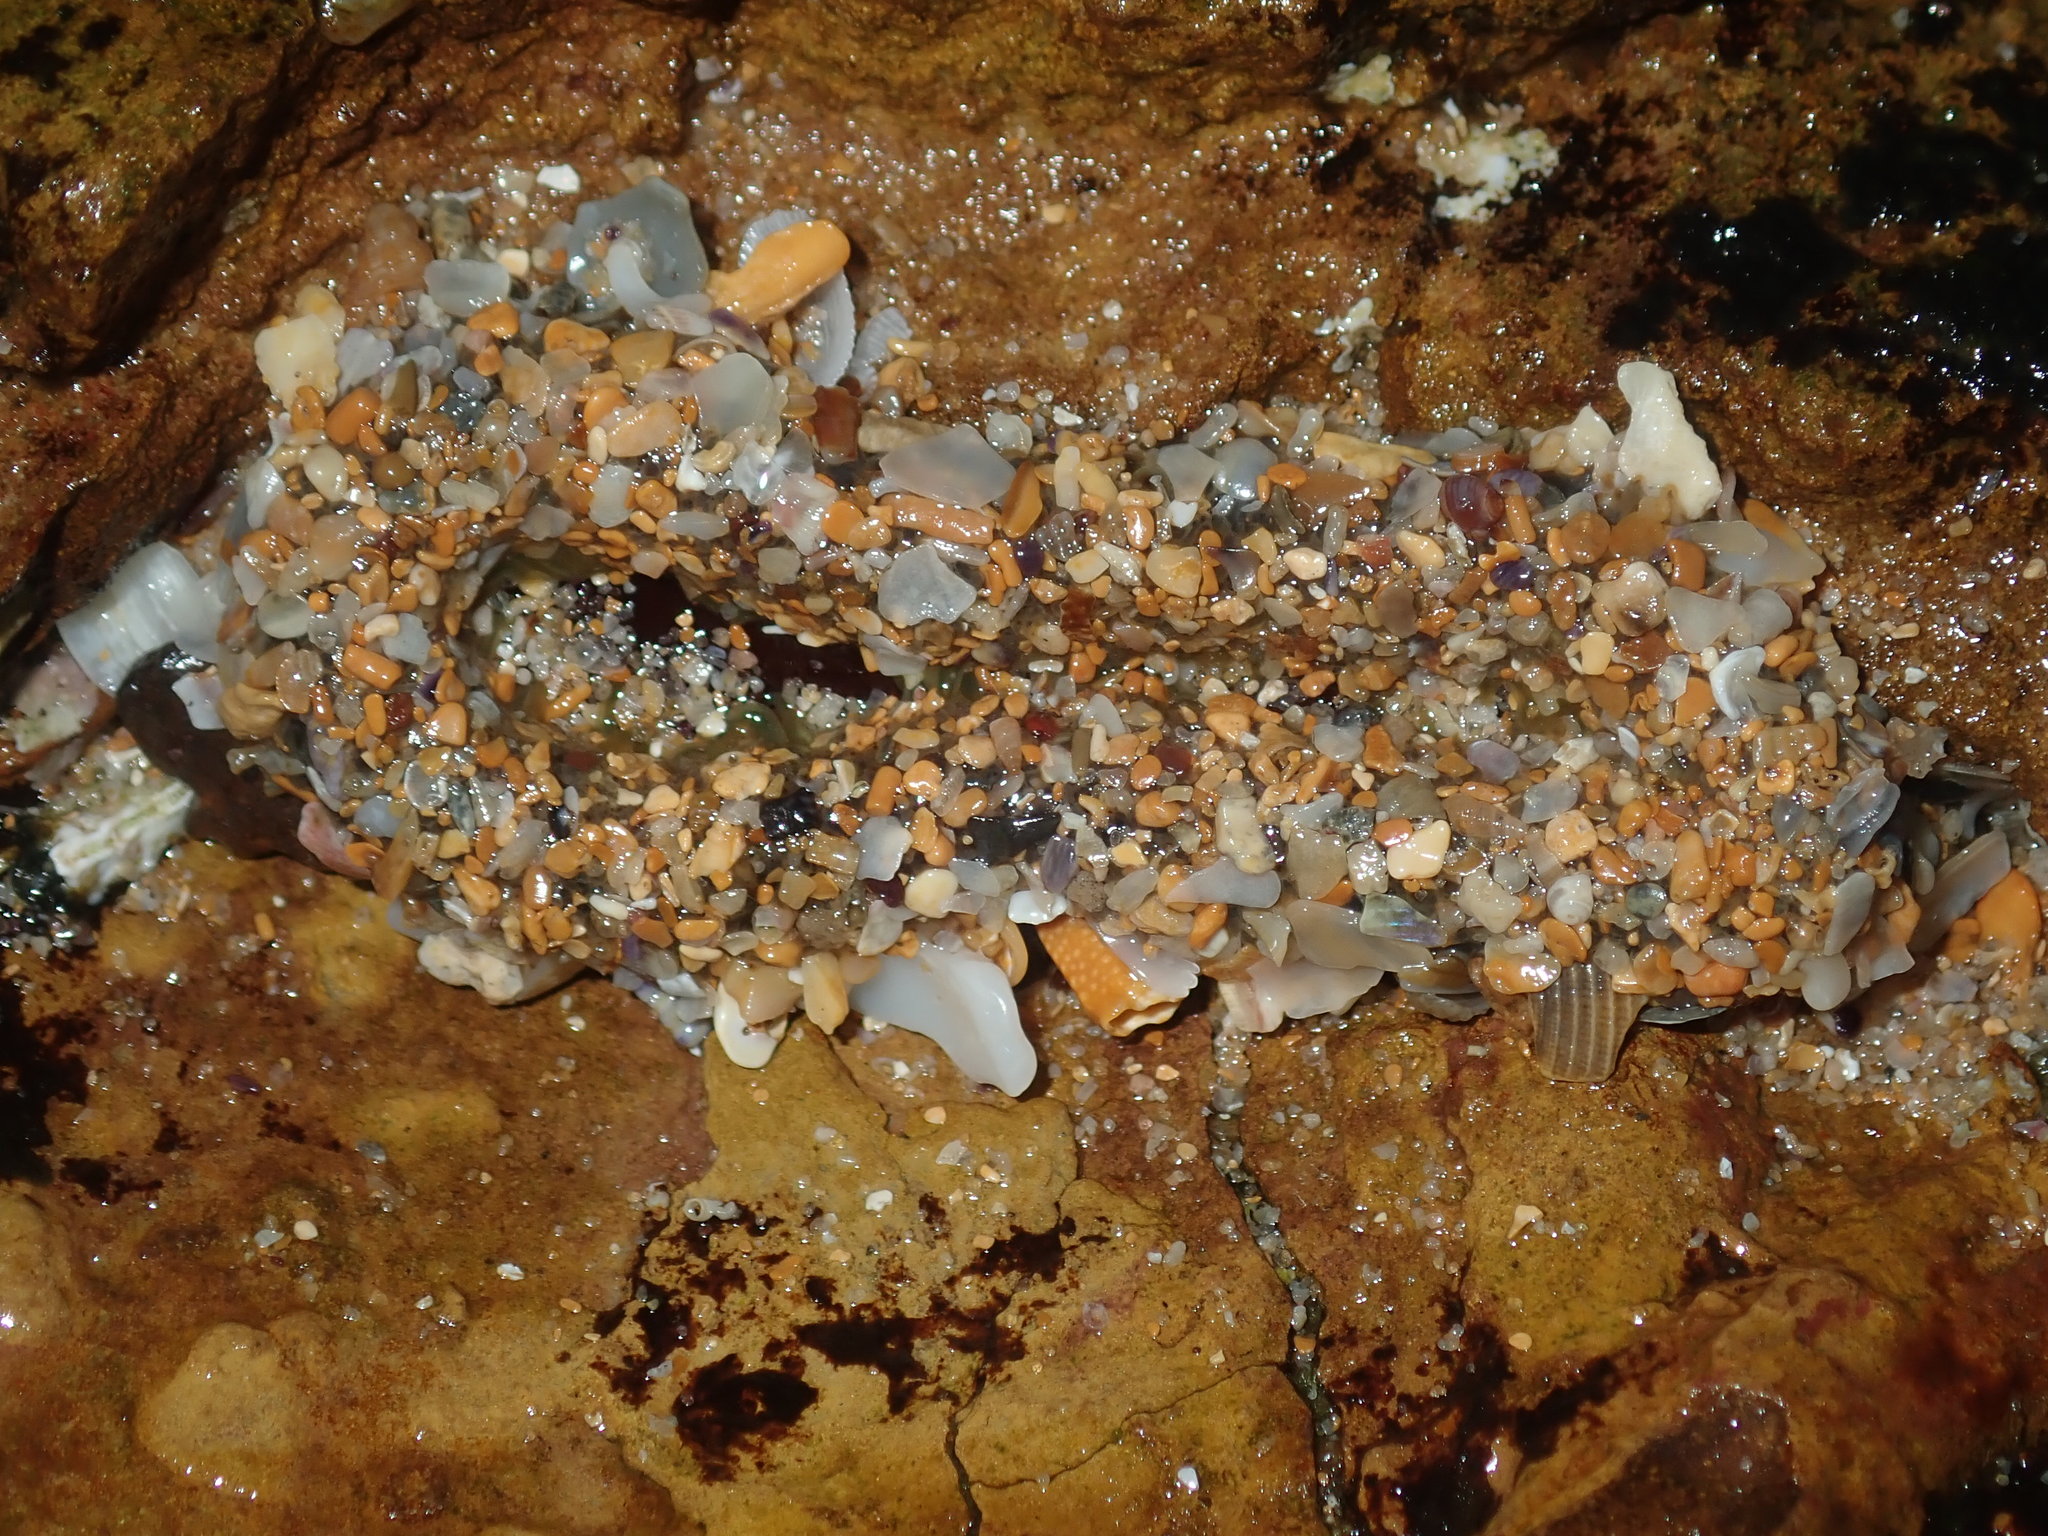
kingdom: Animalia
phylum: Cnidaria
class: Anthozoa
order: Actiniaria
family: Actiniidae
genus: Oulactis
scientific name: Oulactis muscosa
